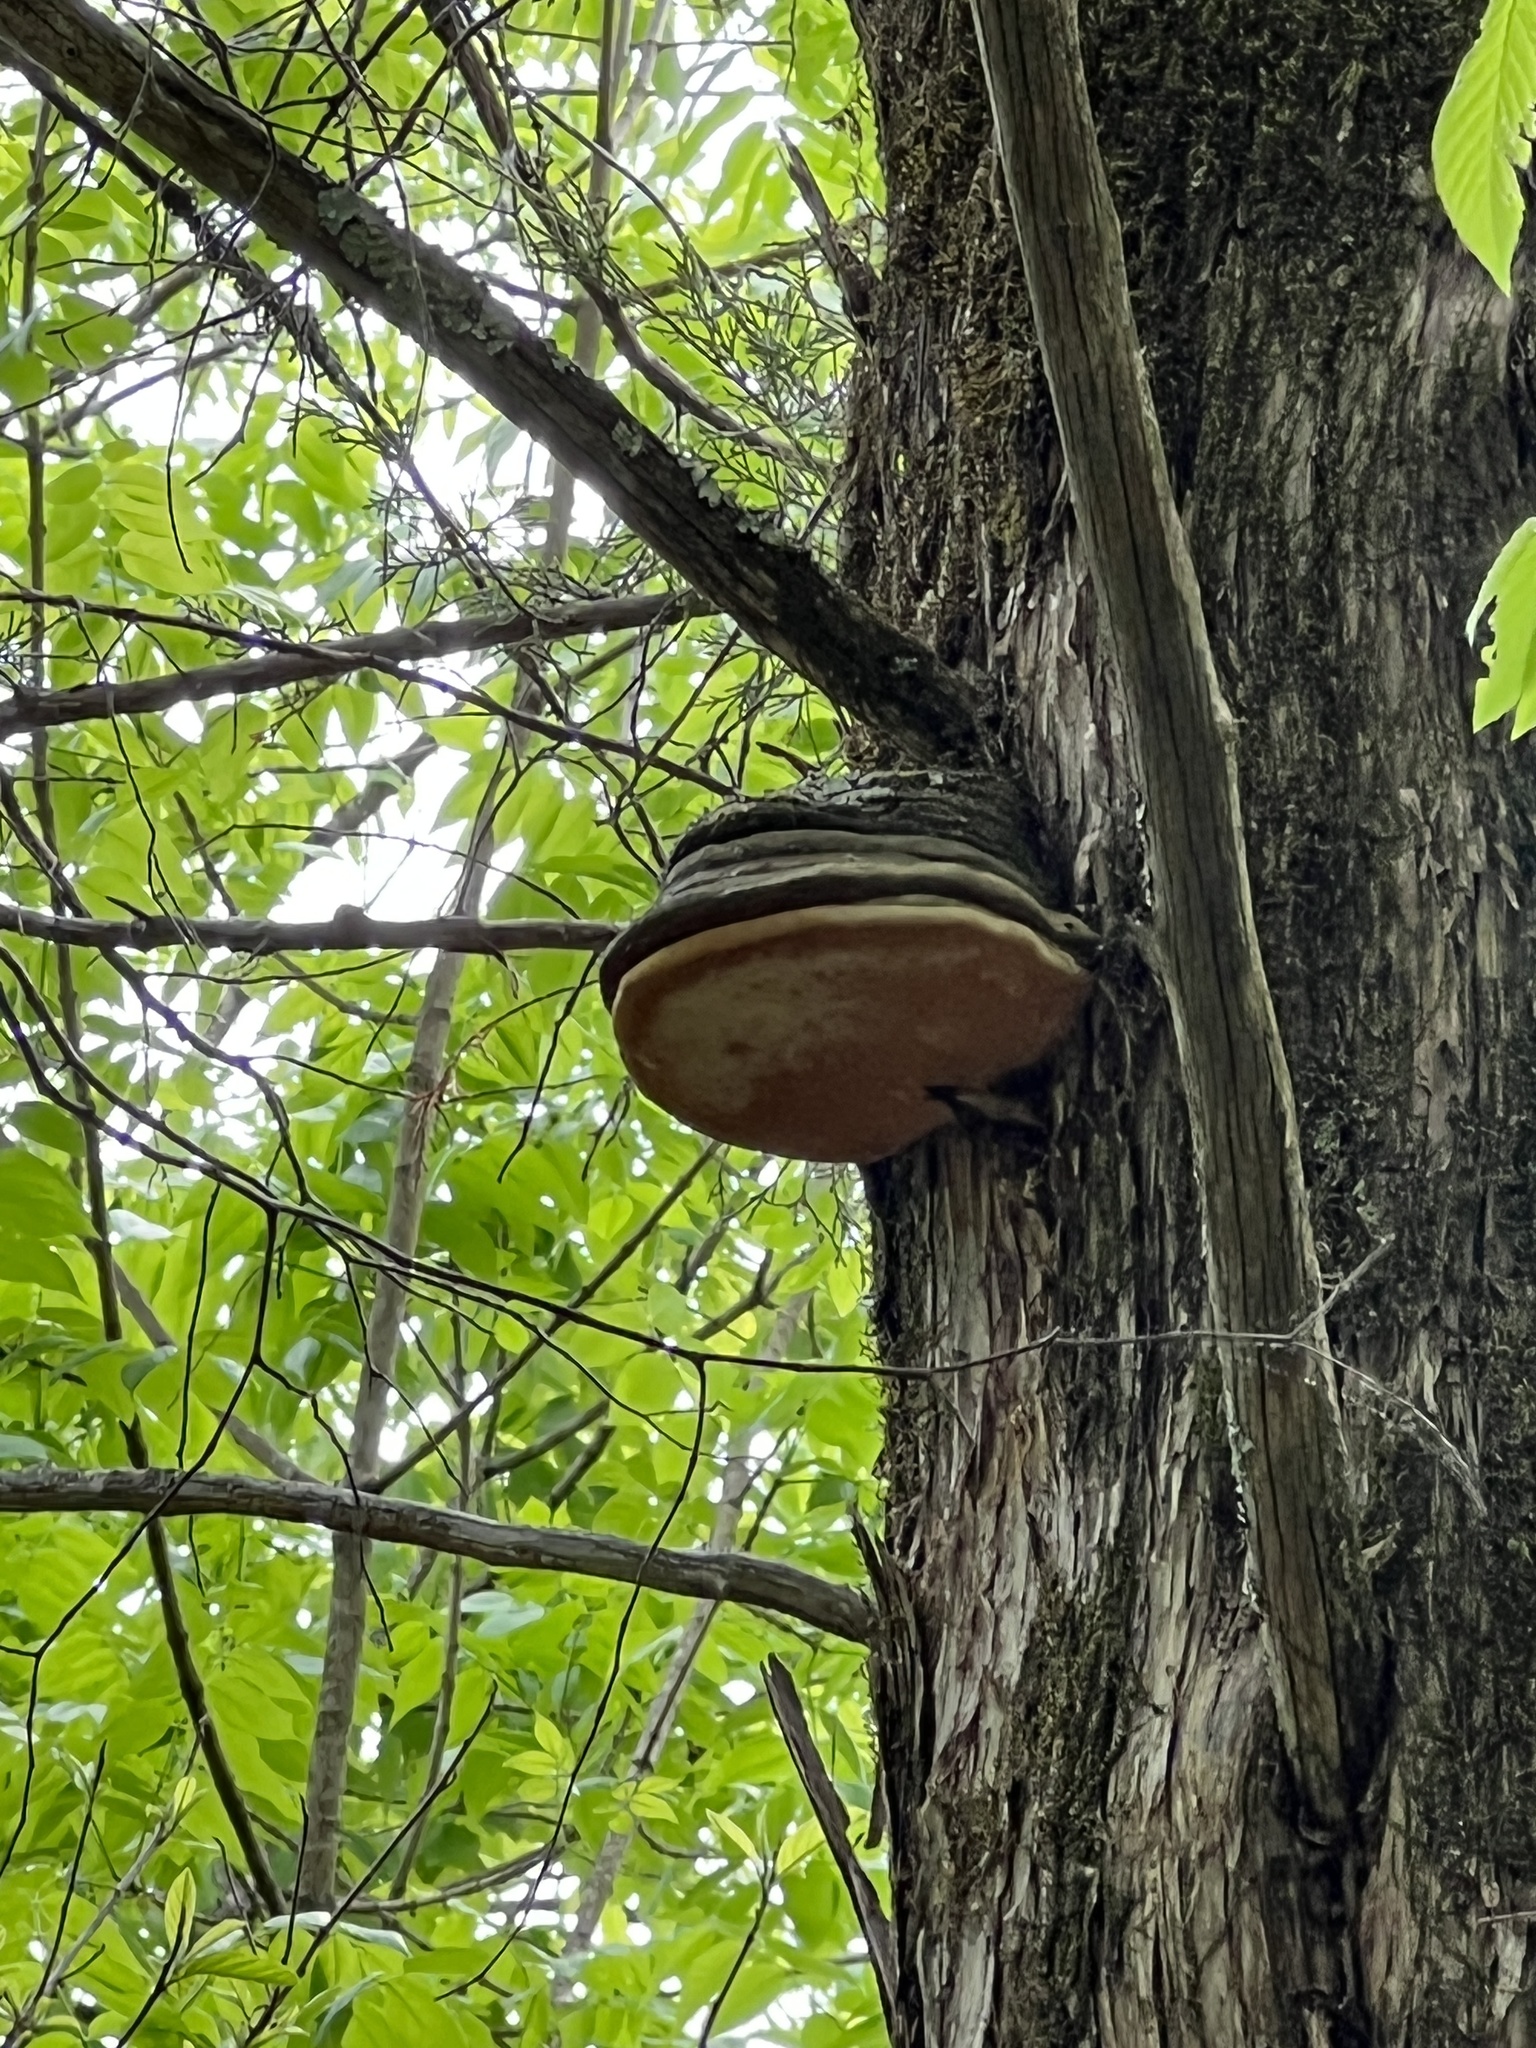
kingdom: Fungi
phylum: Basidiomycota
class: Agaricomycetes
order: Polyporales
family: Polyporaceae
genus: Fomes
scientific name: Fomes fomentarius
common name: Hoof fungus
